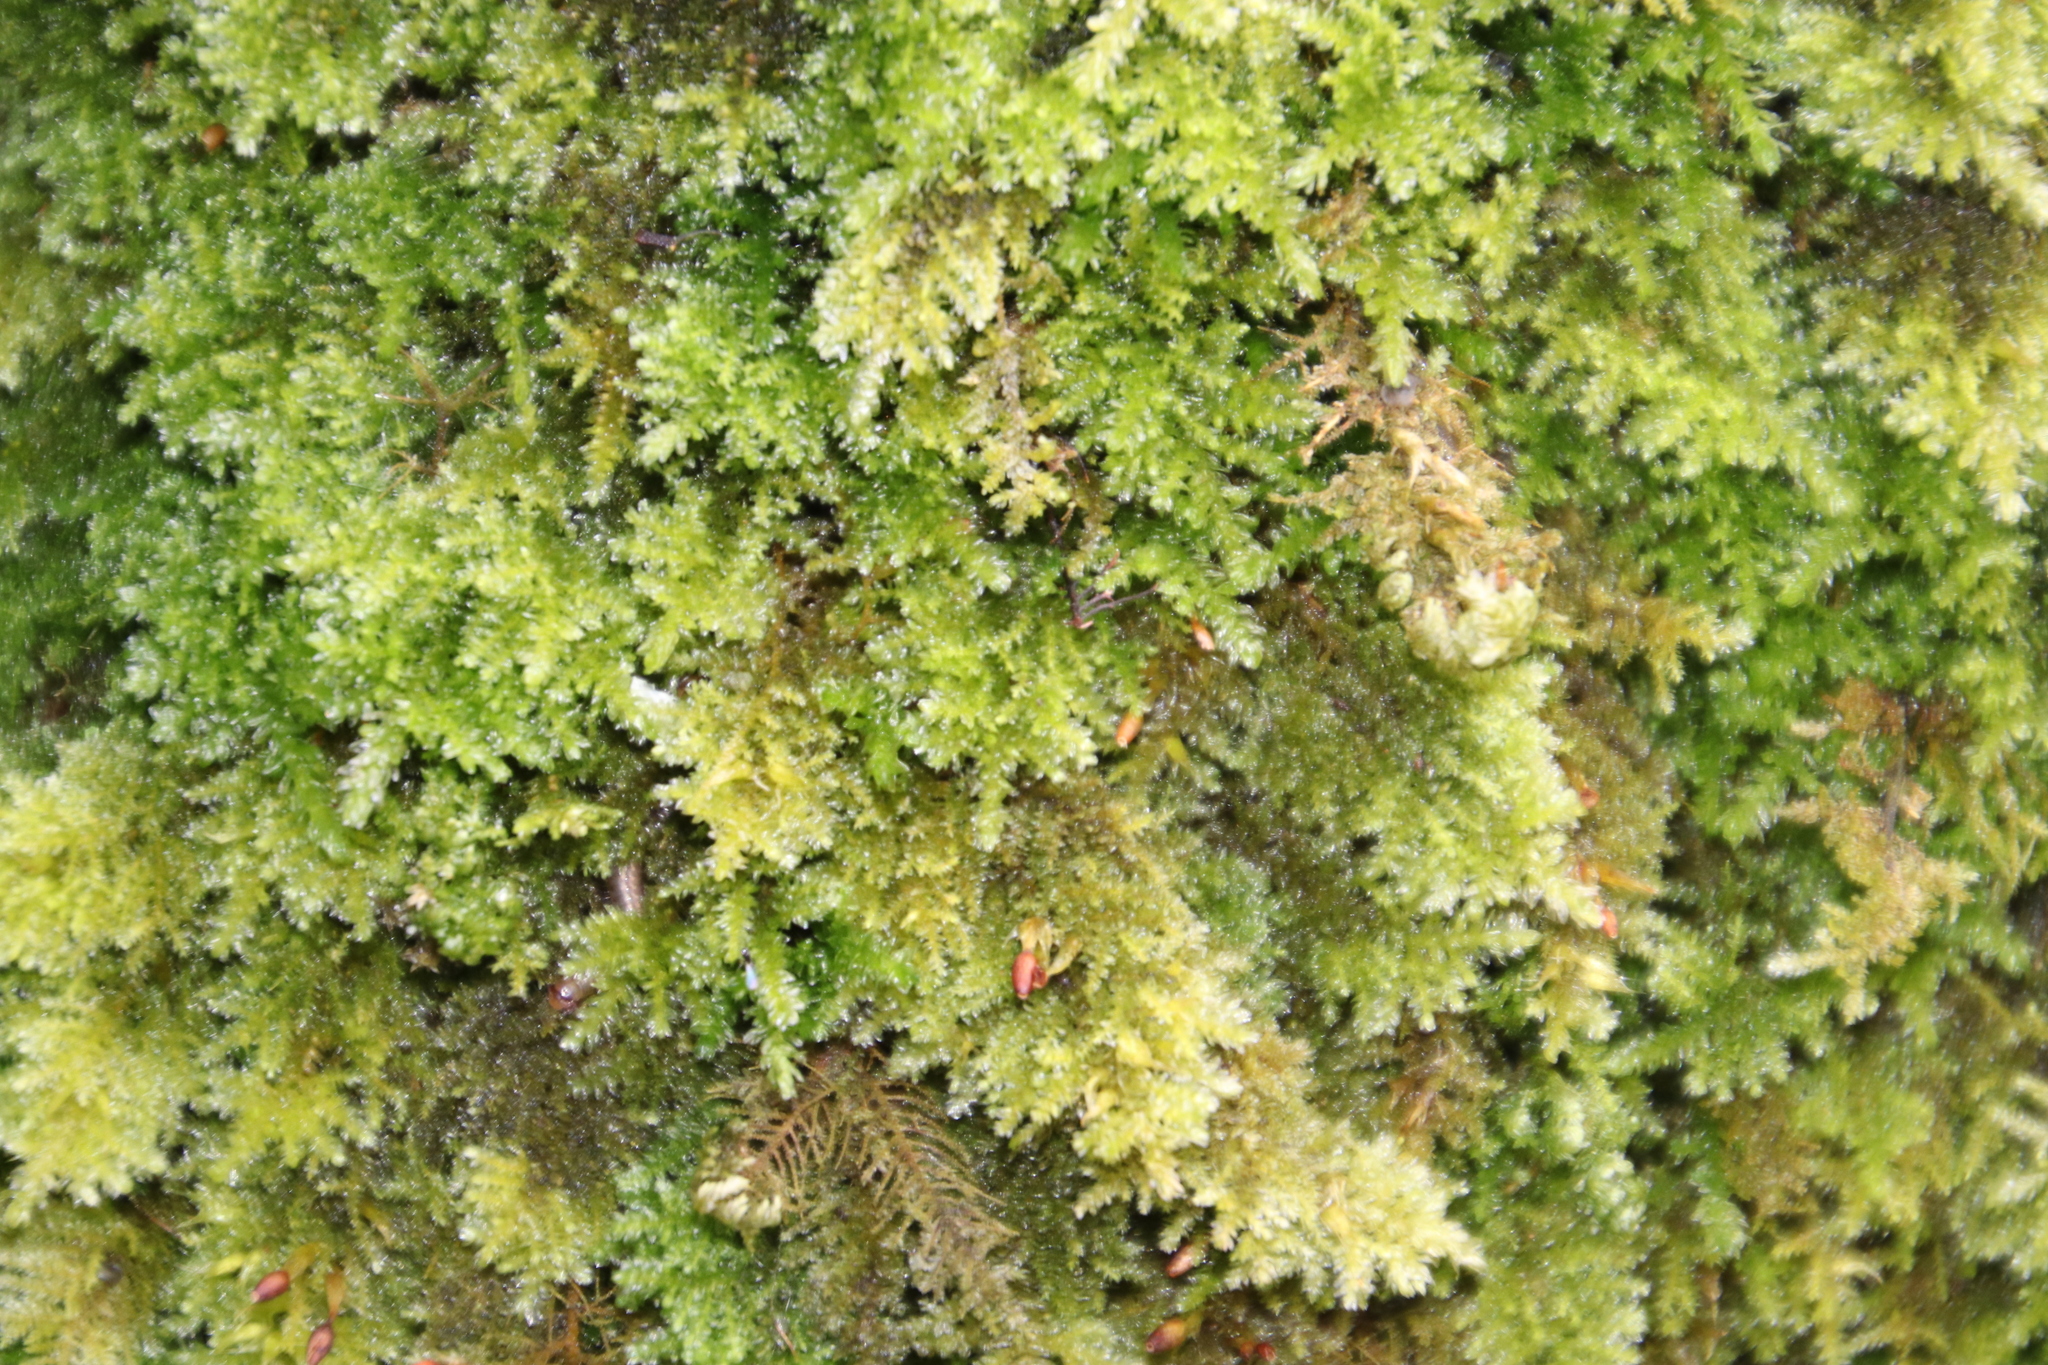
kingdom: Plantae
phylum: Bryophyta
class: Bryopsida
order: Hypnales
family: Neckeraceae
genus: Leptodon
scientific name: Leptodon smithii
